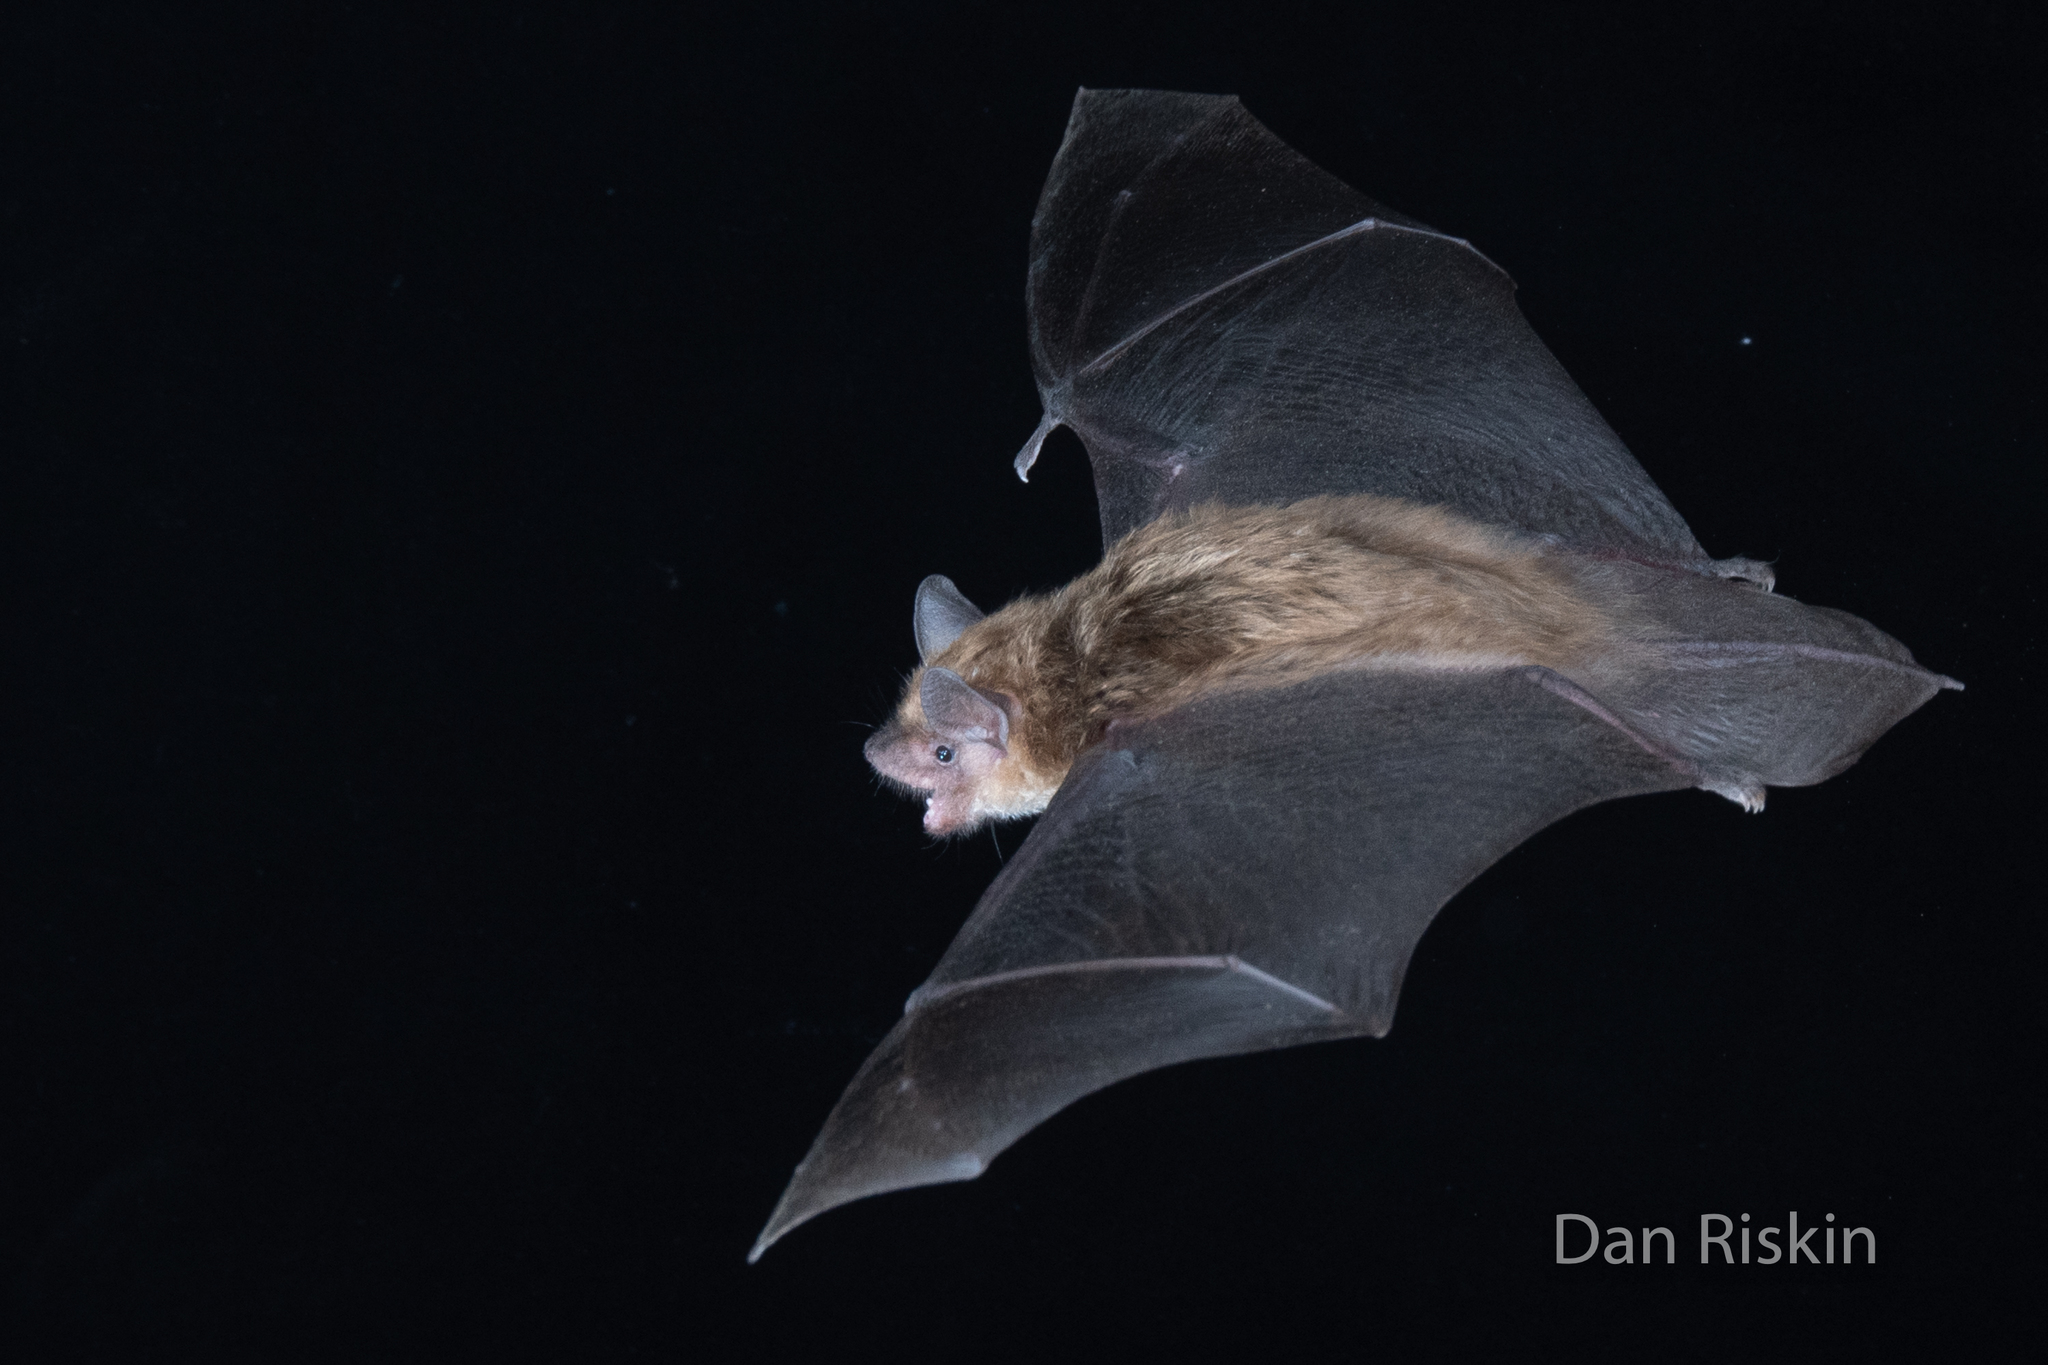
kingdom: Animalia
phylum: Chordata
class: Mammalia
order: Chiroptera
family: Vespertilionidae
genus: Eptesicus
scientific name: Eptesicus fuscus
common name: Big brown bat
